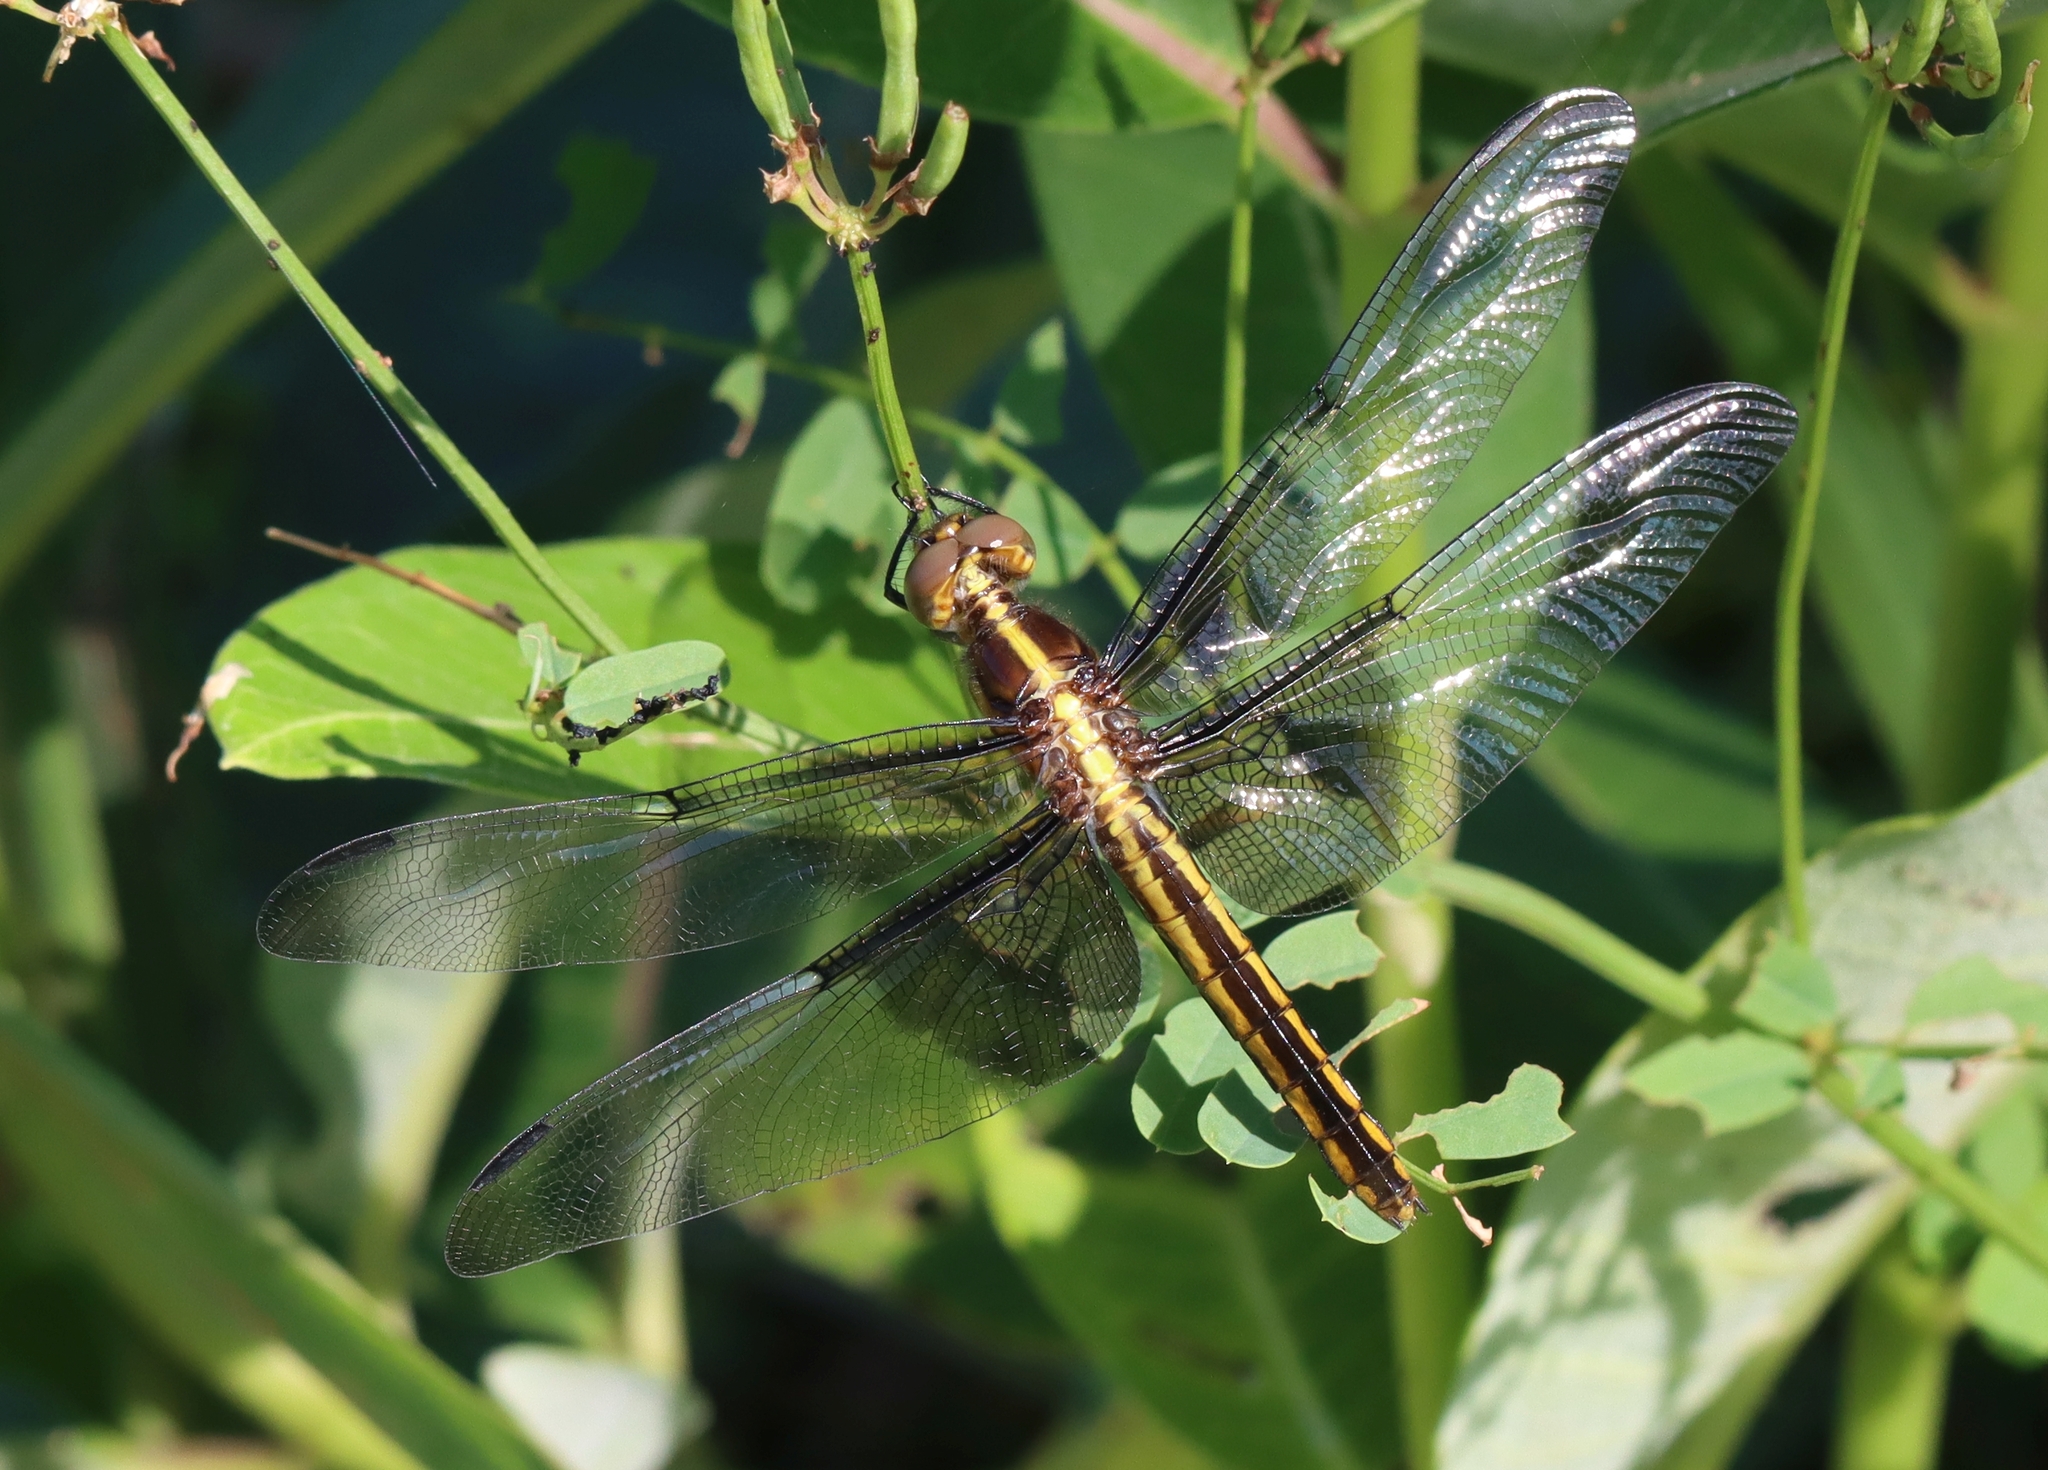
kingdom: Animalia
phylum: Arthropoda
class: Insecta
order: Odonata
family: Libellulidae
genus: Libellula
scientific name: Libellula luctuosa
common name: Widow skimmer
